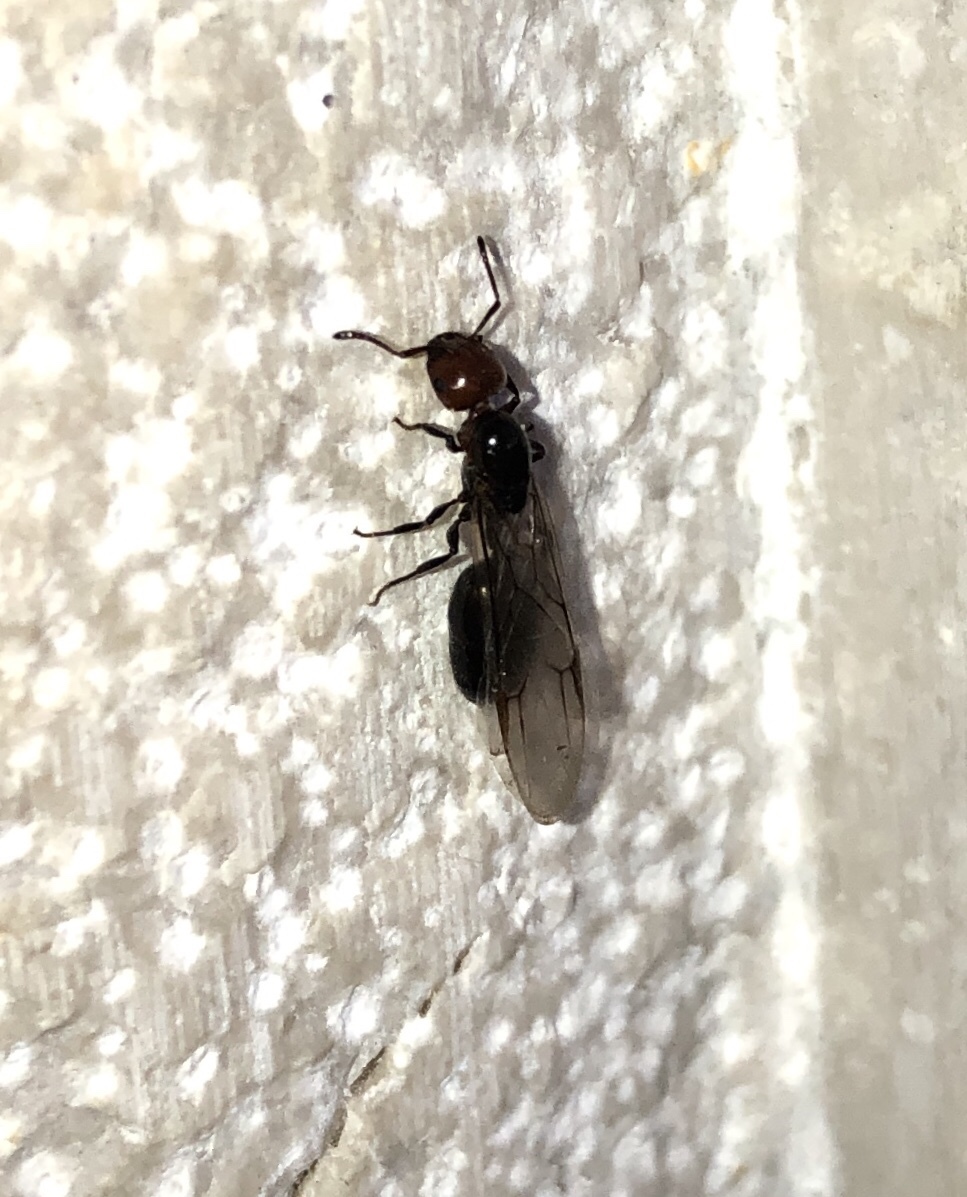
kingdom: Animalia
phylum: Arthropoda
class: Insecta
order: Hymenoptera
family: Formicidae
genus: Crematogaster
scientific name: Crematogaster scutellaris
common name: Fourmi du liège
